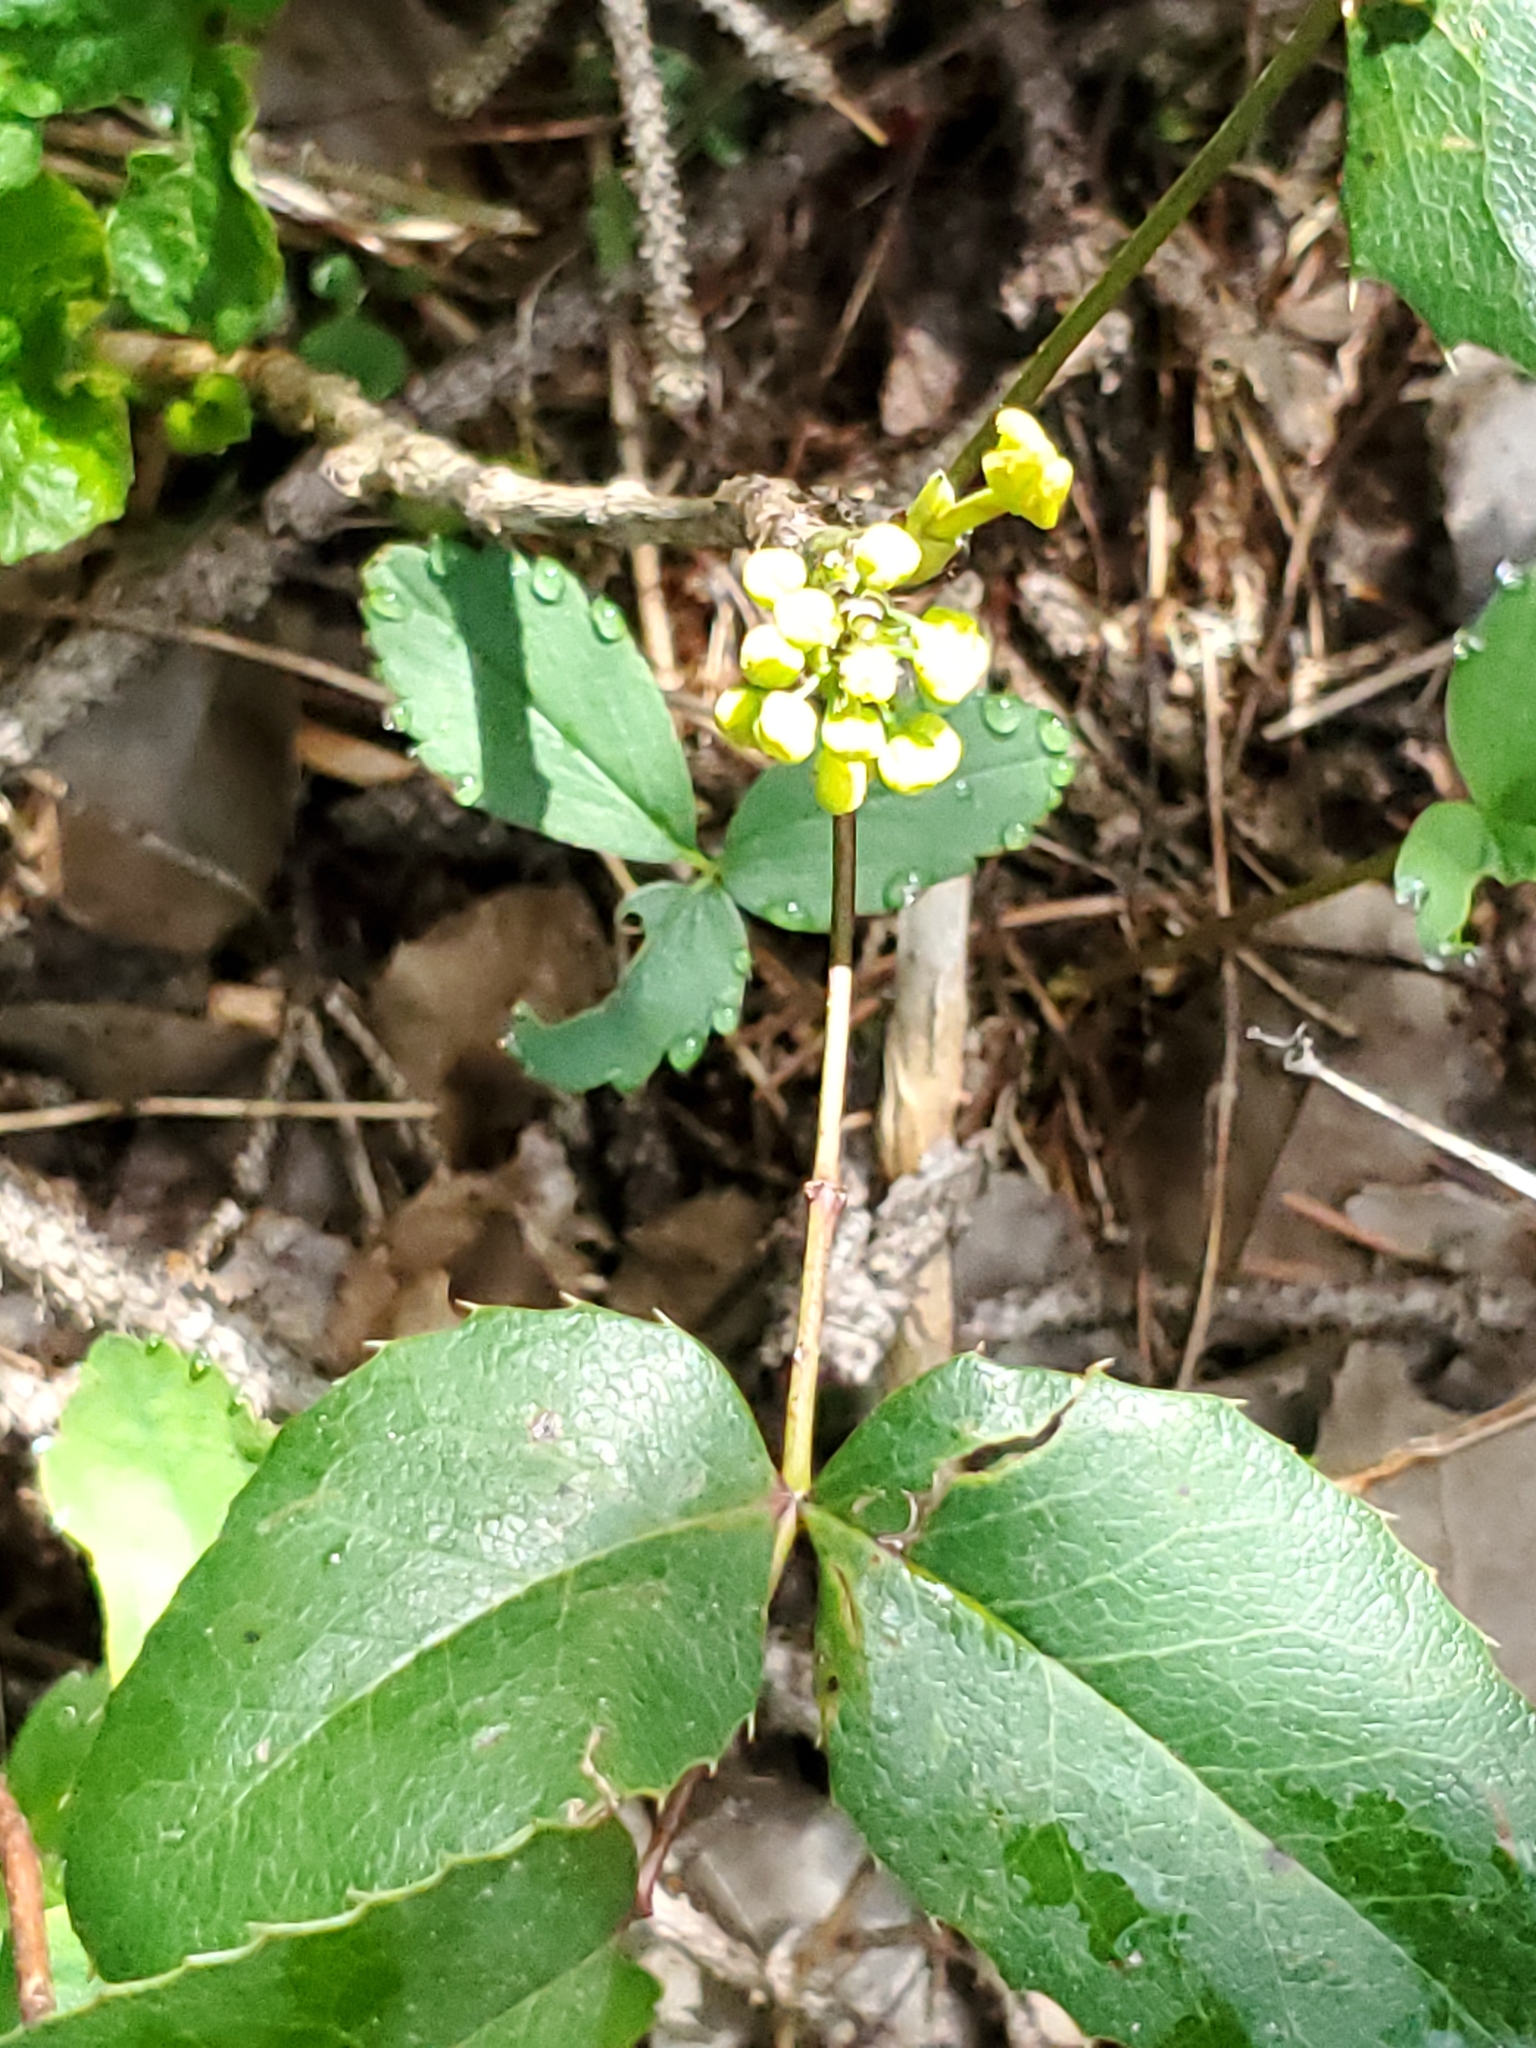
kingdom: Plantae
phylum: Tracheophyta
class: Magnoliopsida
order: Ranunculales
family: Berberidaceae
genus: Mahonia
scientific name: Mahonia repens
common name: Creeping oregon-grape
